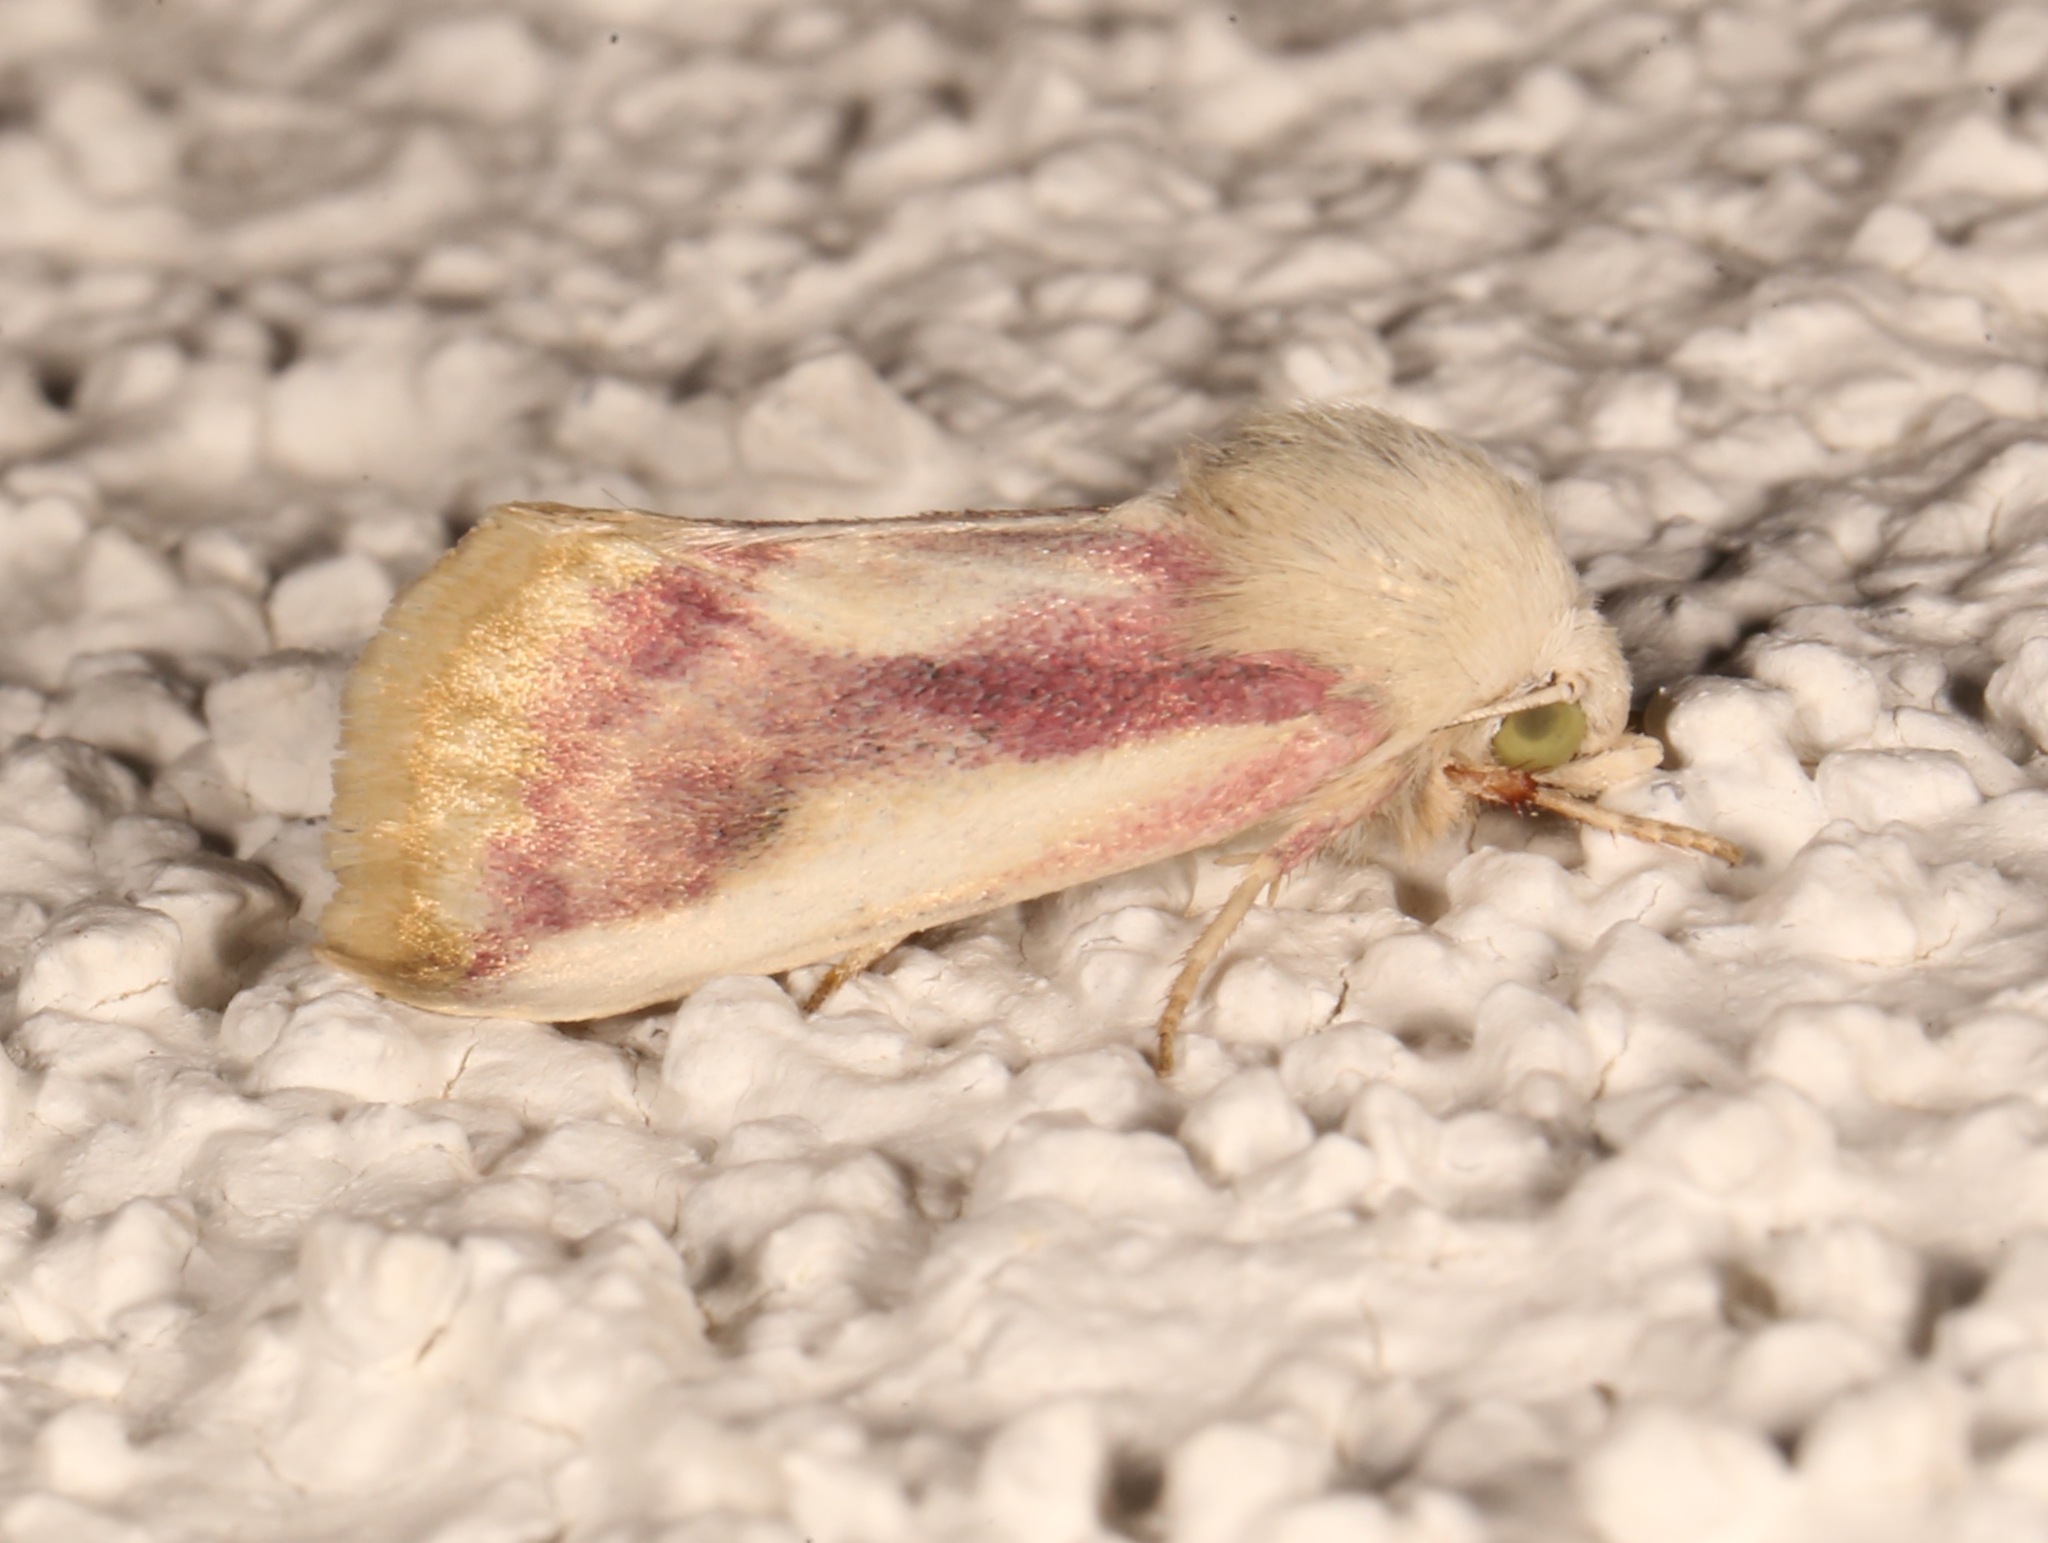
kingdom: Animalia
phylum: Arthropoda
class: Insecta
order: Lepidoptera
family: Noctuidae
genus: Schinia
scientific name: Schinia niveicosta
